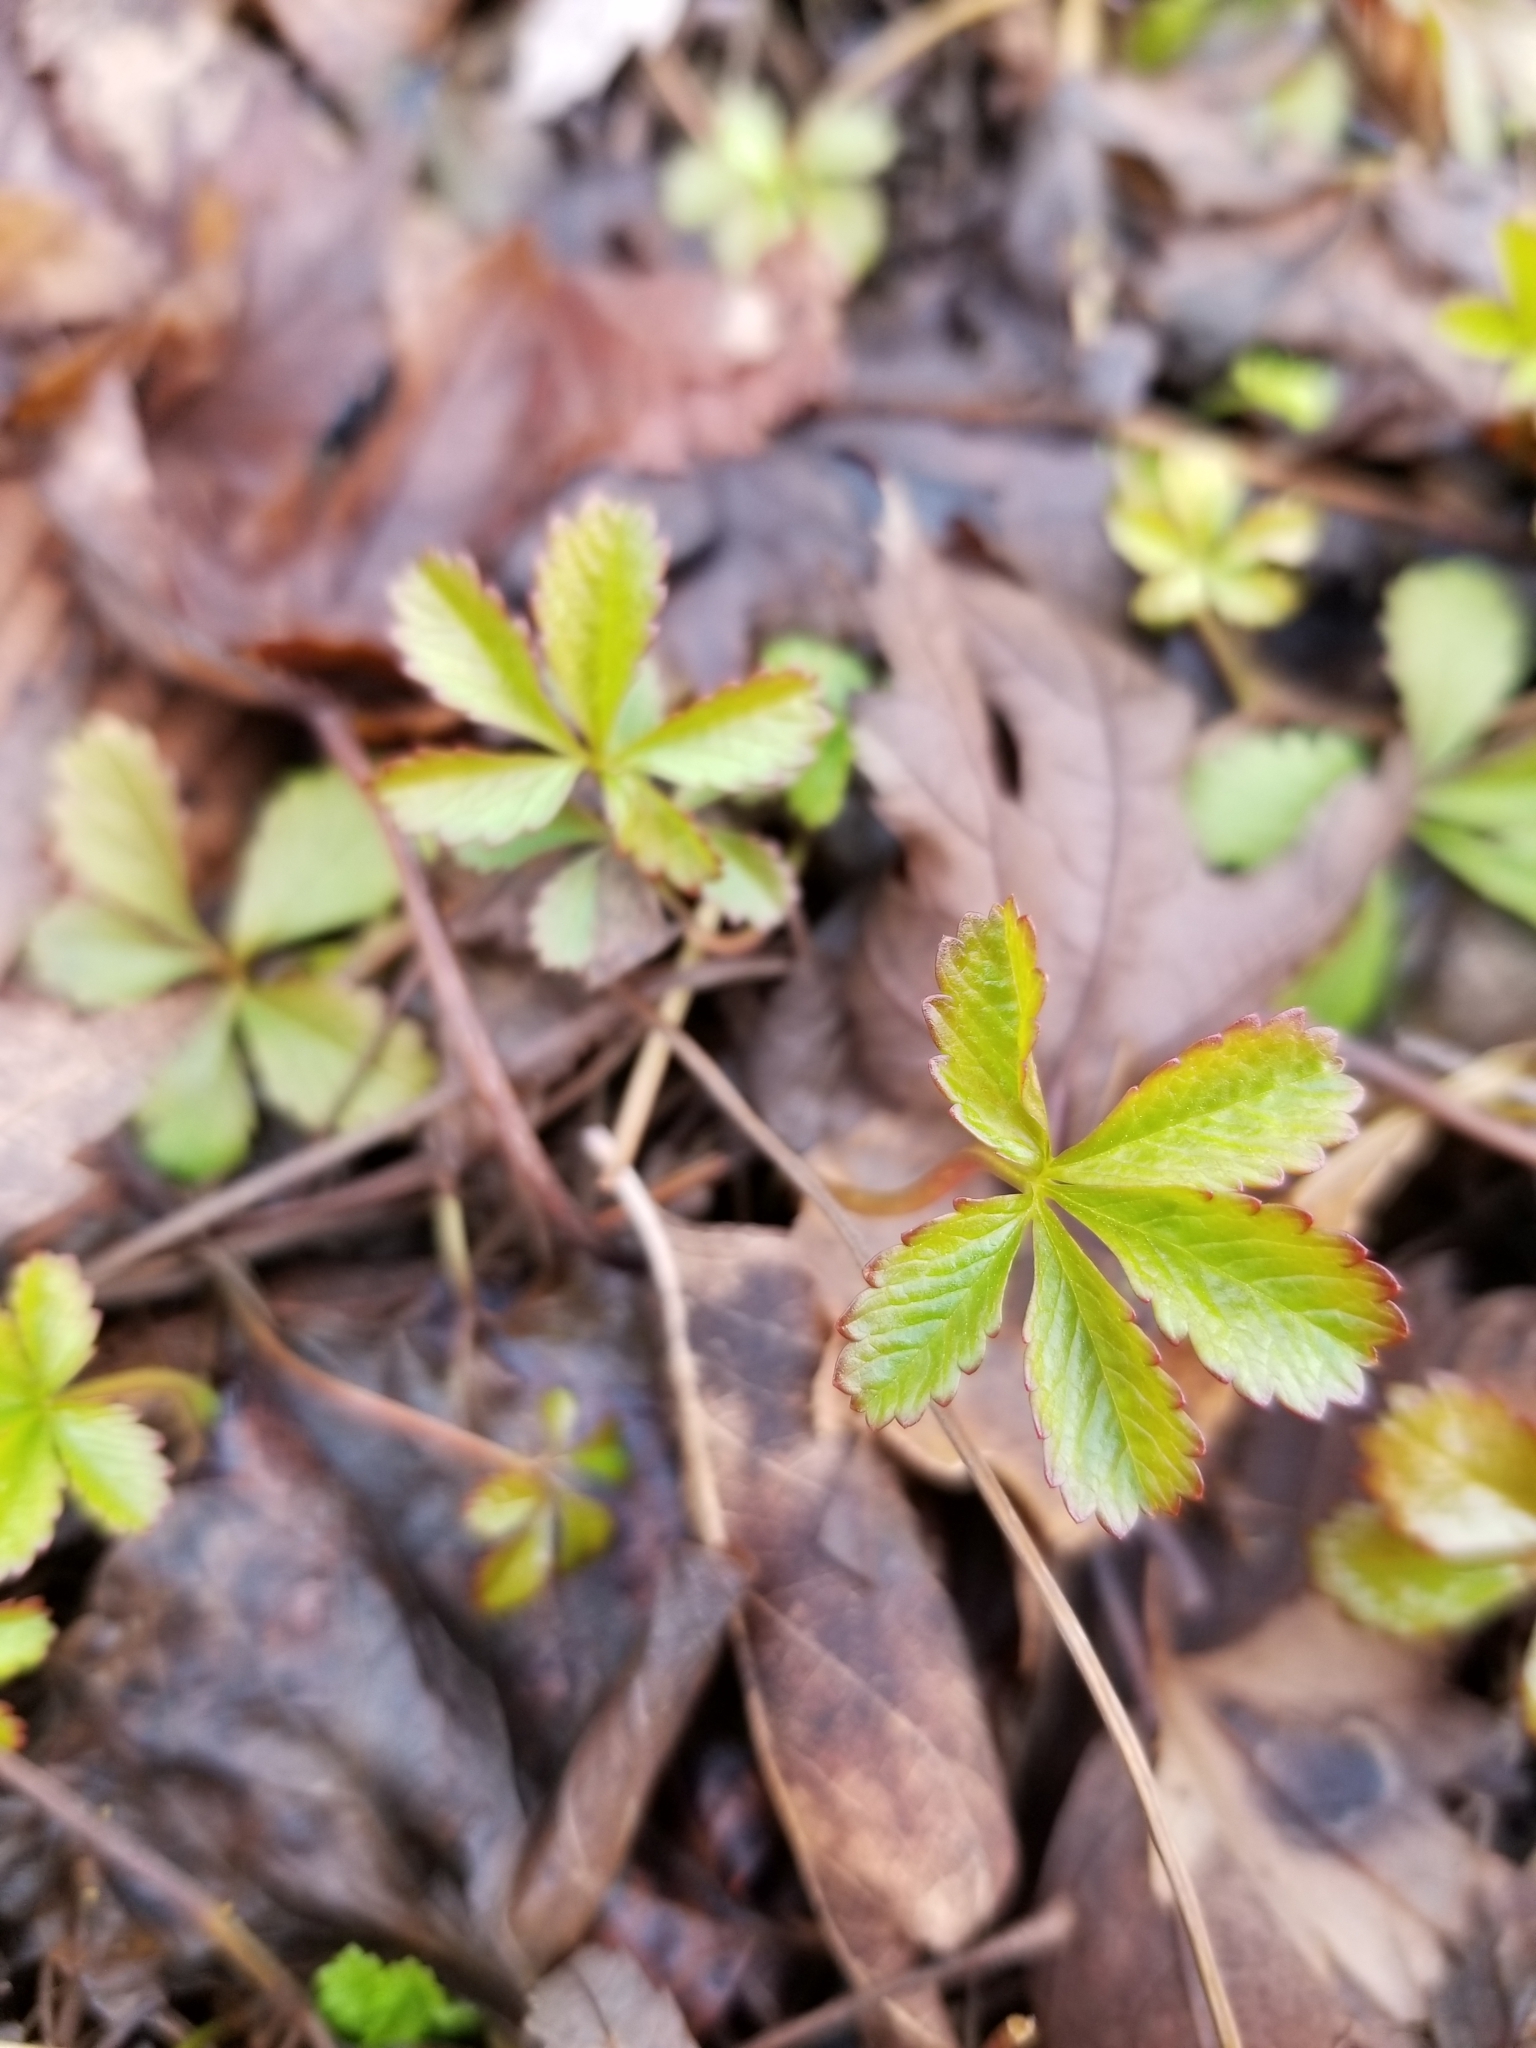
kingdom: Plantae
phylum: Tracheophyta
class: Magnoliopsida
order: Rosales
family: Rosaceae
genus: Potentilla
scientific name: Potentilla reptans
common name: Creeping cinquefoil
